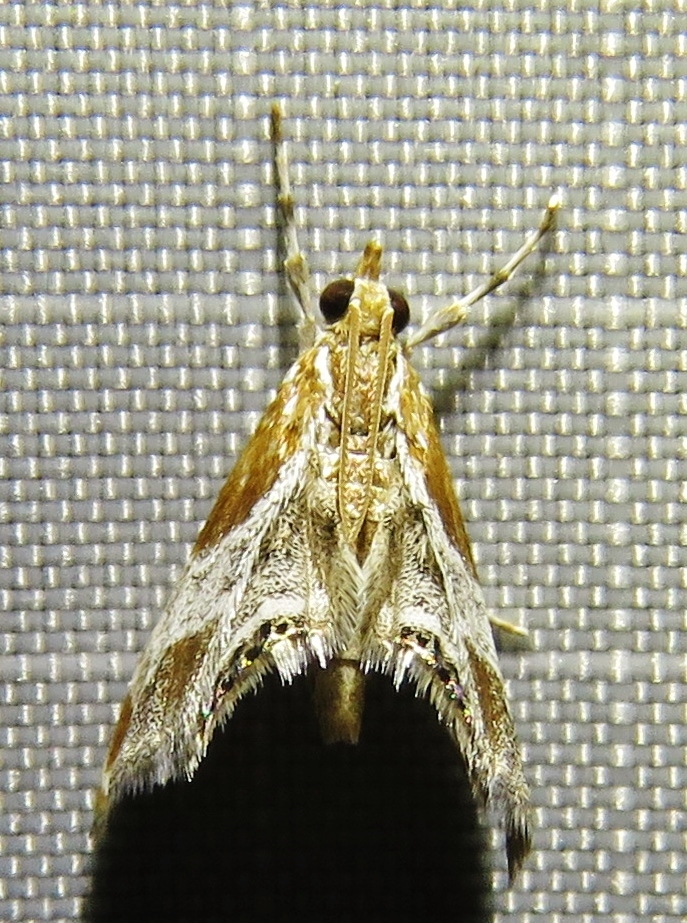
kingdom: Animalia
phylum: Arthropoda
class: Insecta
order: Lepidoptera
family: Crambidae
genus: Chalcoela
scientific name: Chalcoela pegasalis
